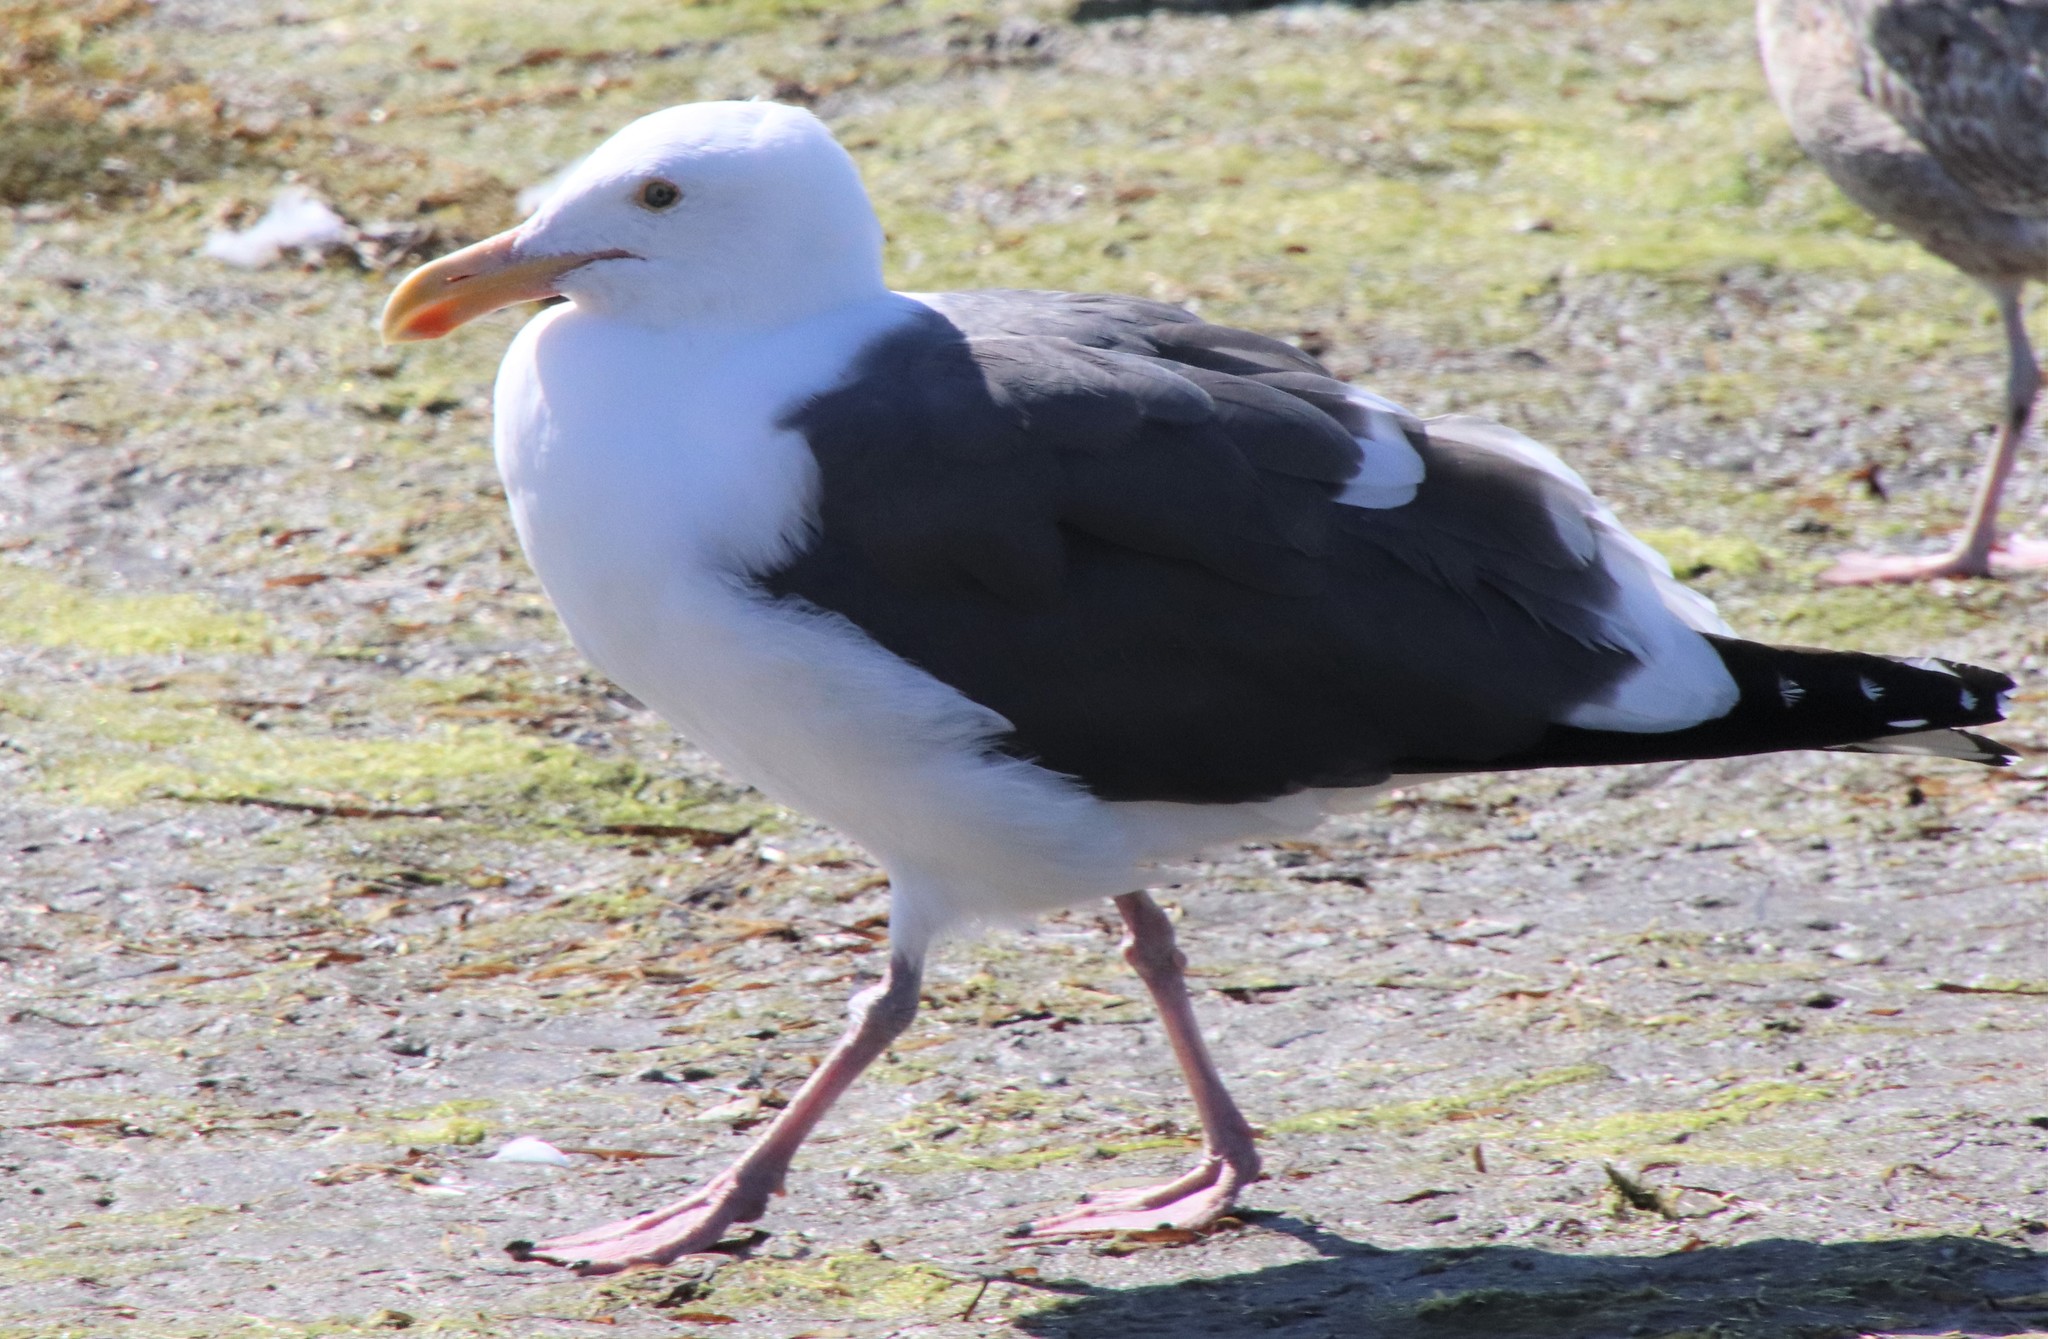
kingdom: Animalia
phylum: Chordata
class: Aves
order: Charadriiformes
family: Laridae
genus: Larus
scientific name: Larus occidentalis
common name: Western gull
